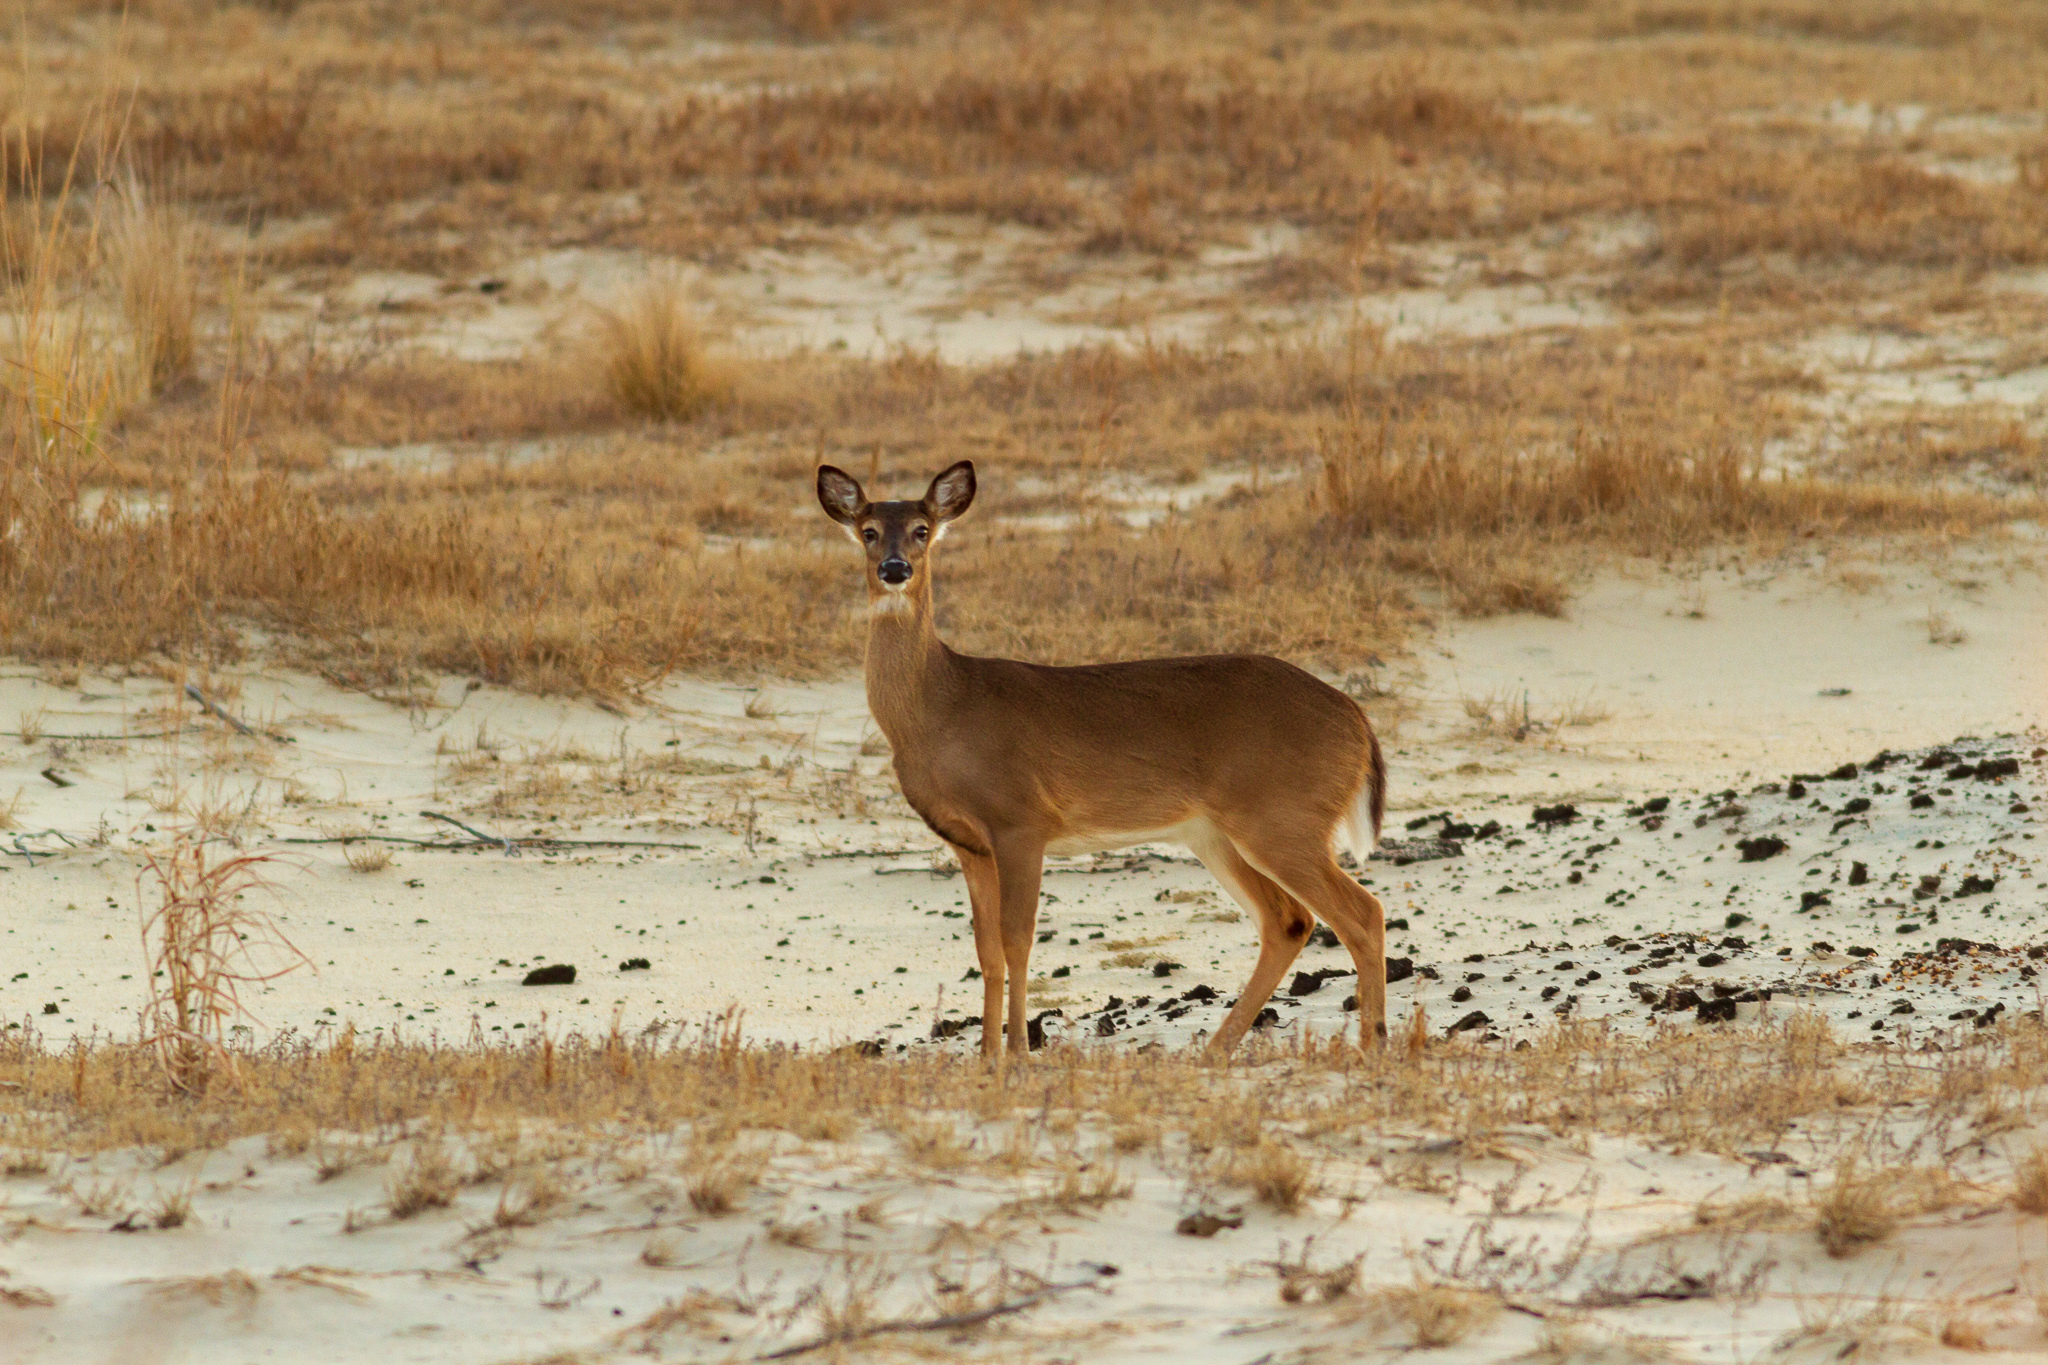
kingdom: Animalia
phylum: Chordata
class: Mammalia
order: Artiodactyla
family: Cervidae
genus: Odocoileus
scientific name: Odocoileus virginianus
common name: White-tailed deer
